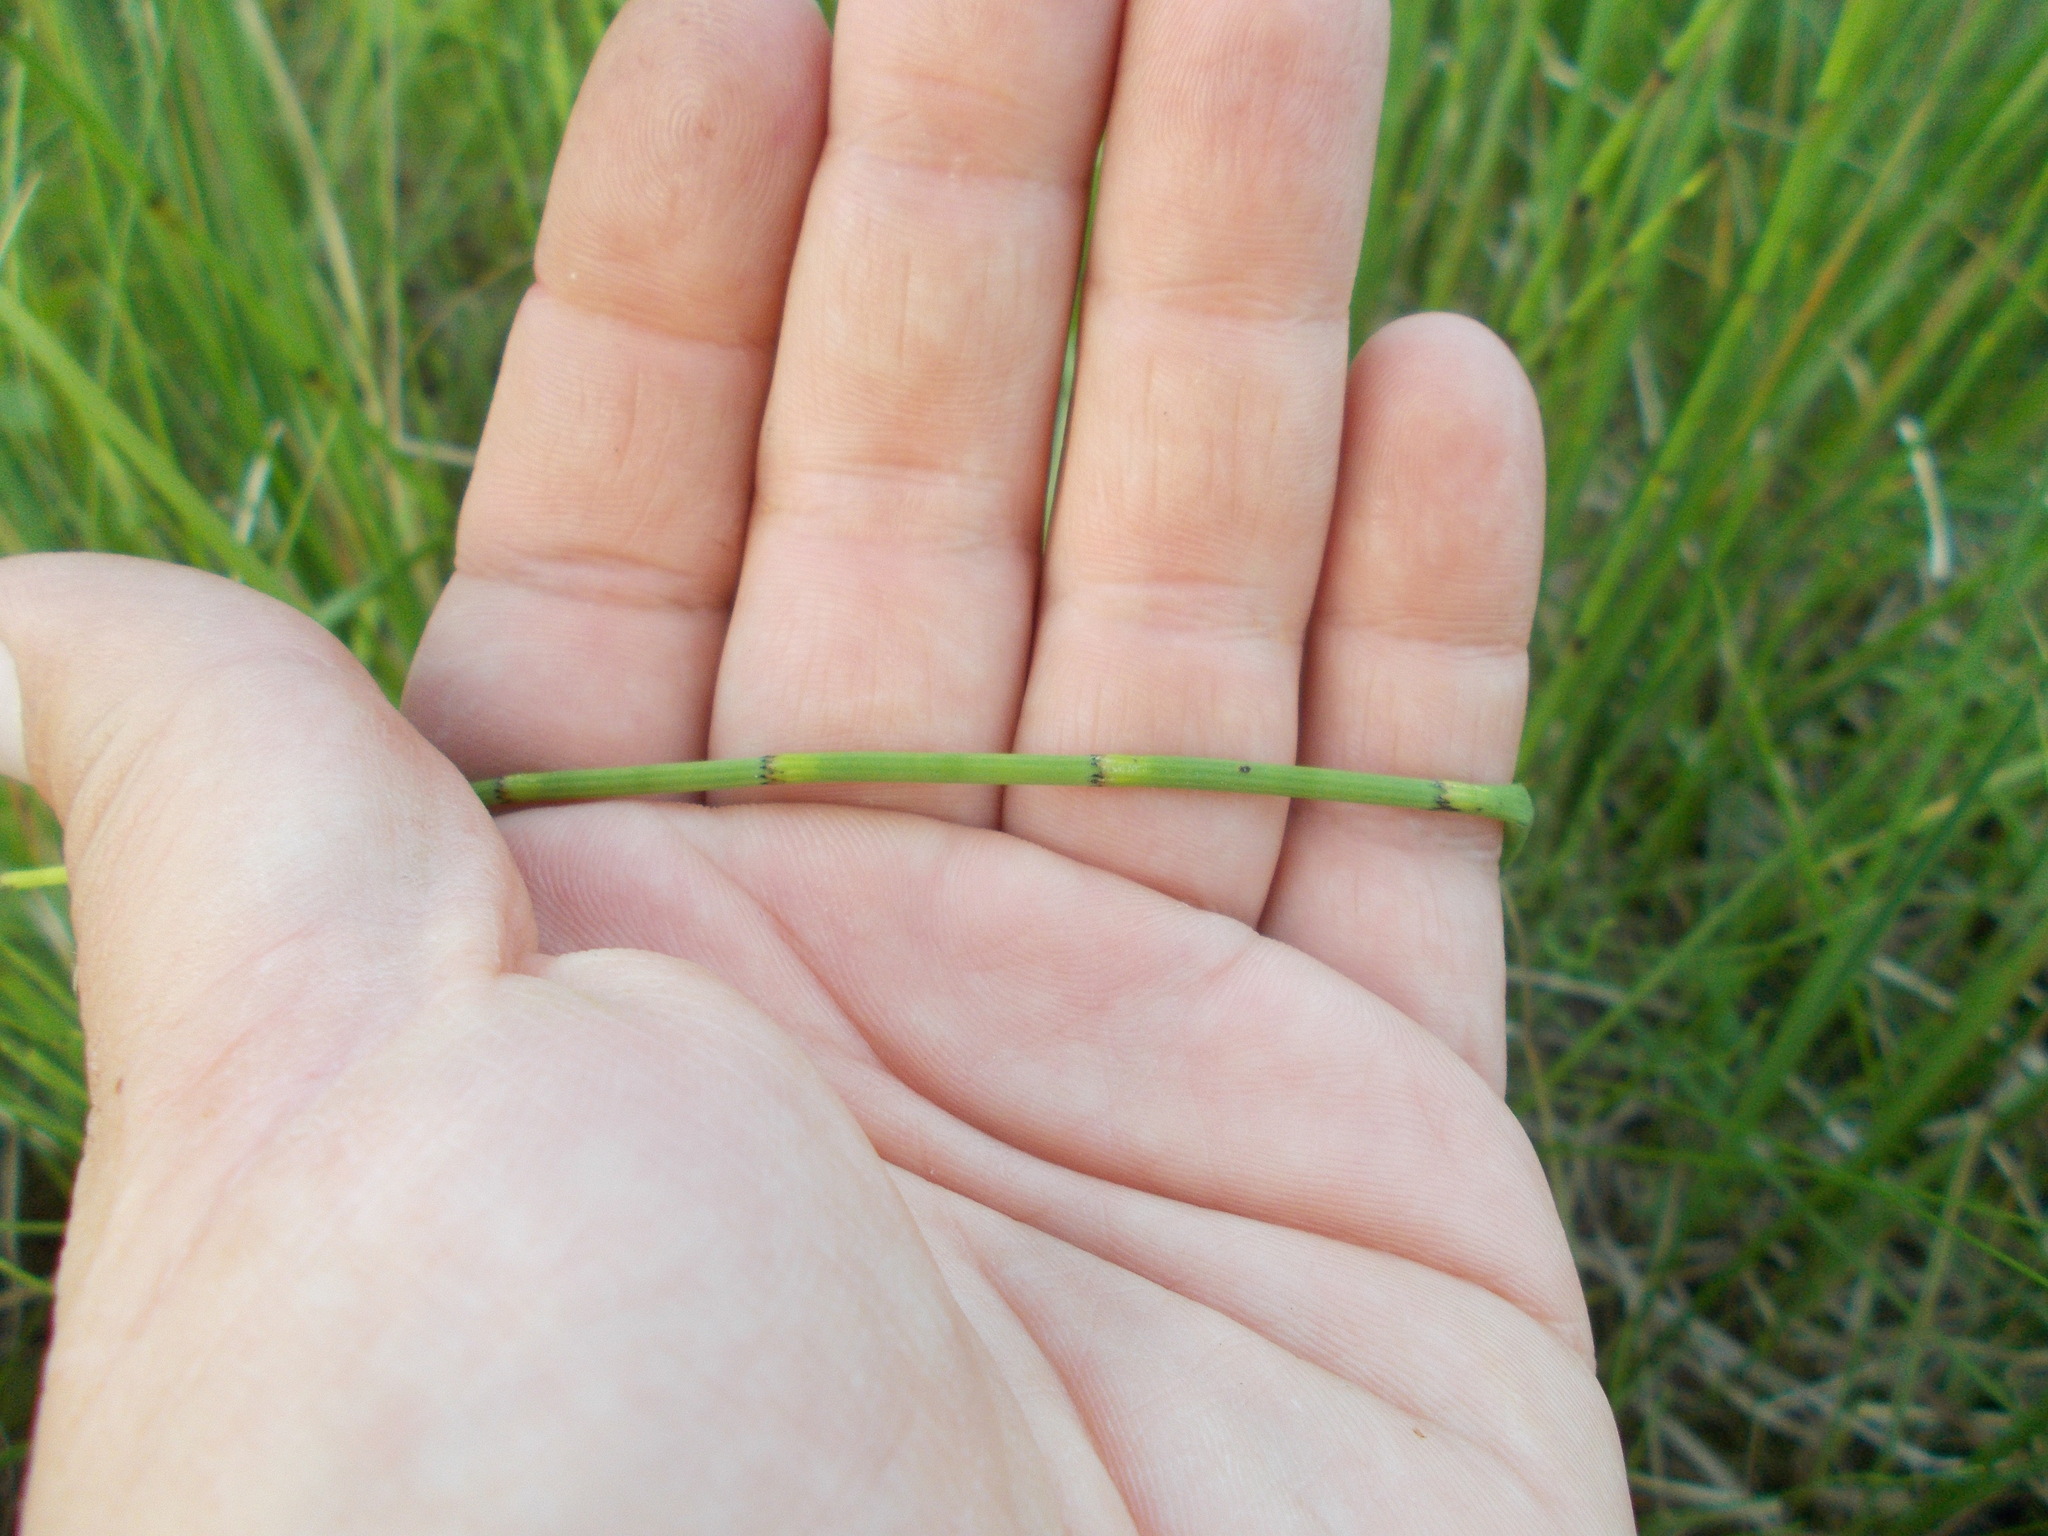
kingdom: Plantae
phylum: Tracheophyta
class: Polypodiopsida
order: Equisetales
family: Equisetaceae
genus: Equisetum
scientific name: Equisetum fluviatile
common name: Water horsetail
